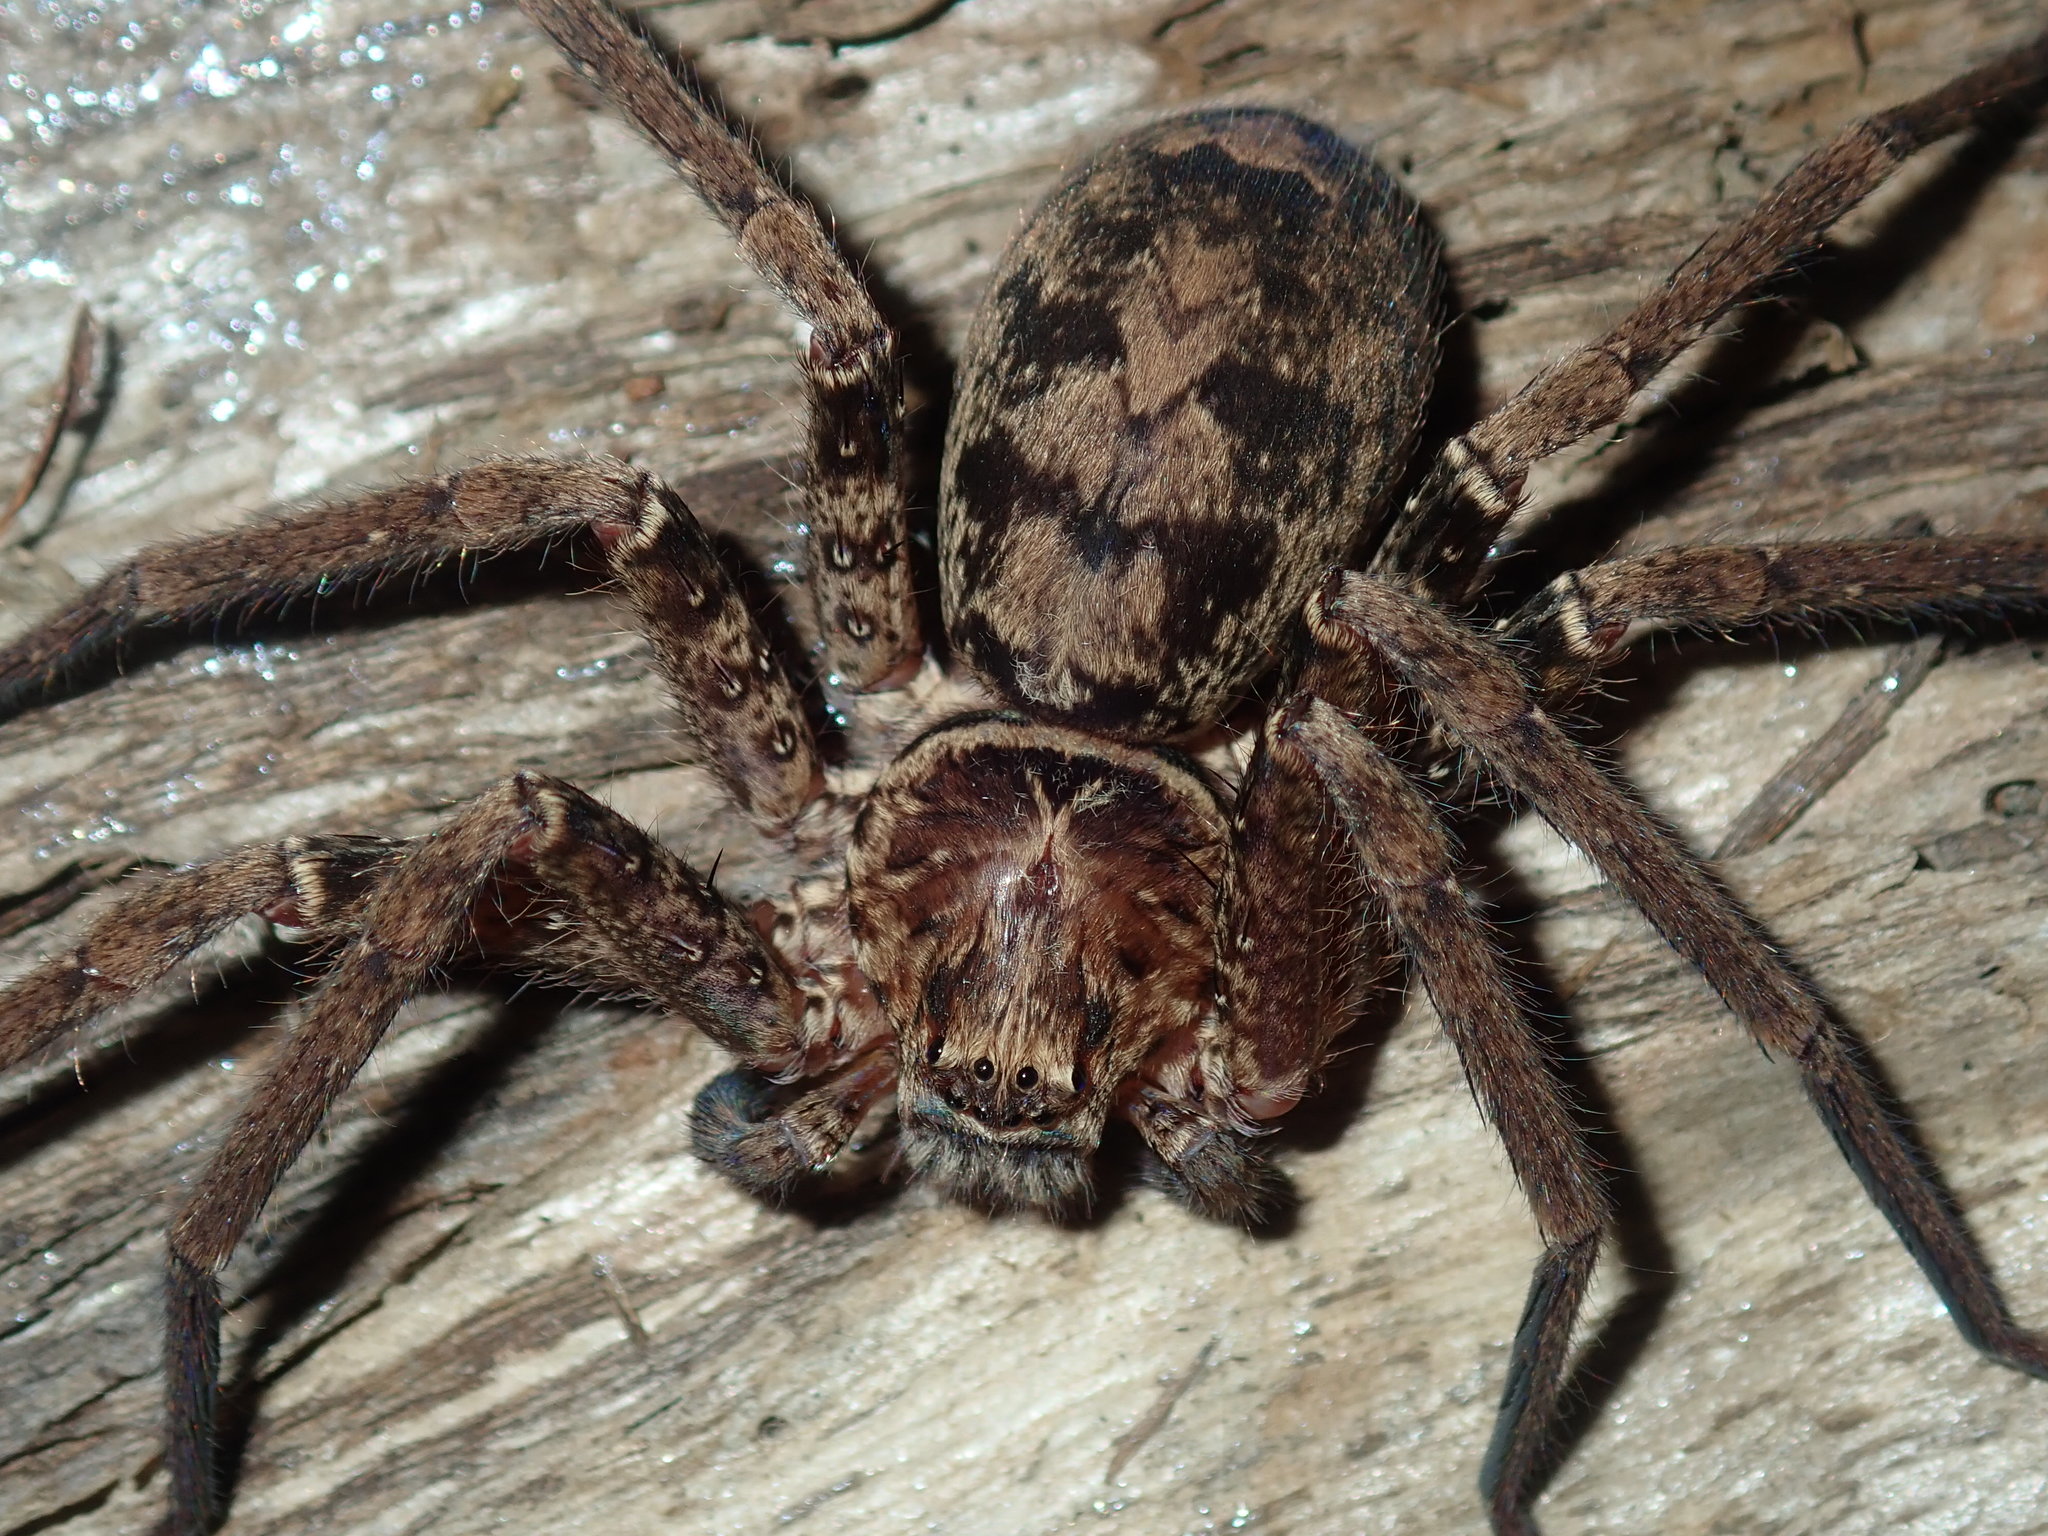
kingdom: Animalia
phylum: Arthropoda
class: Arachnida
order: Araneae
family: Sparassidae
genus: Heteropoda
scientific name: Heteropoda jugulans
